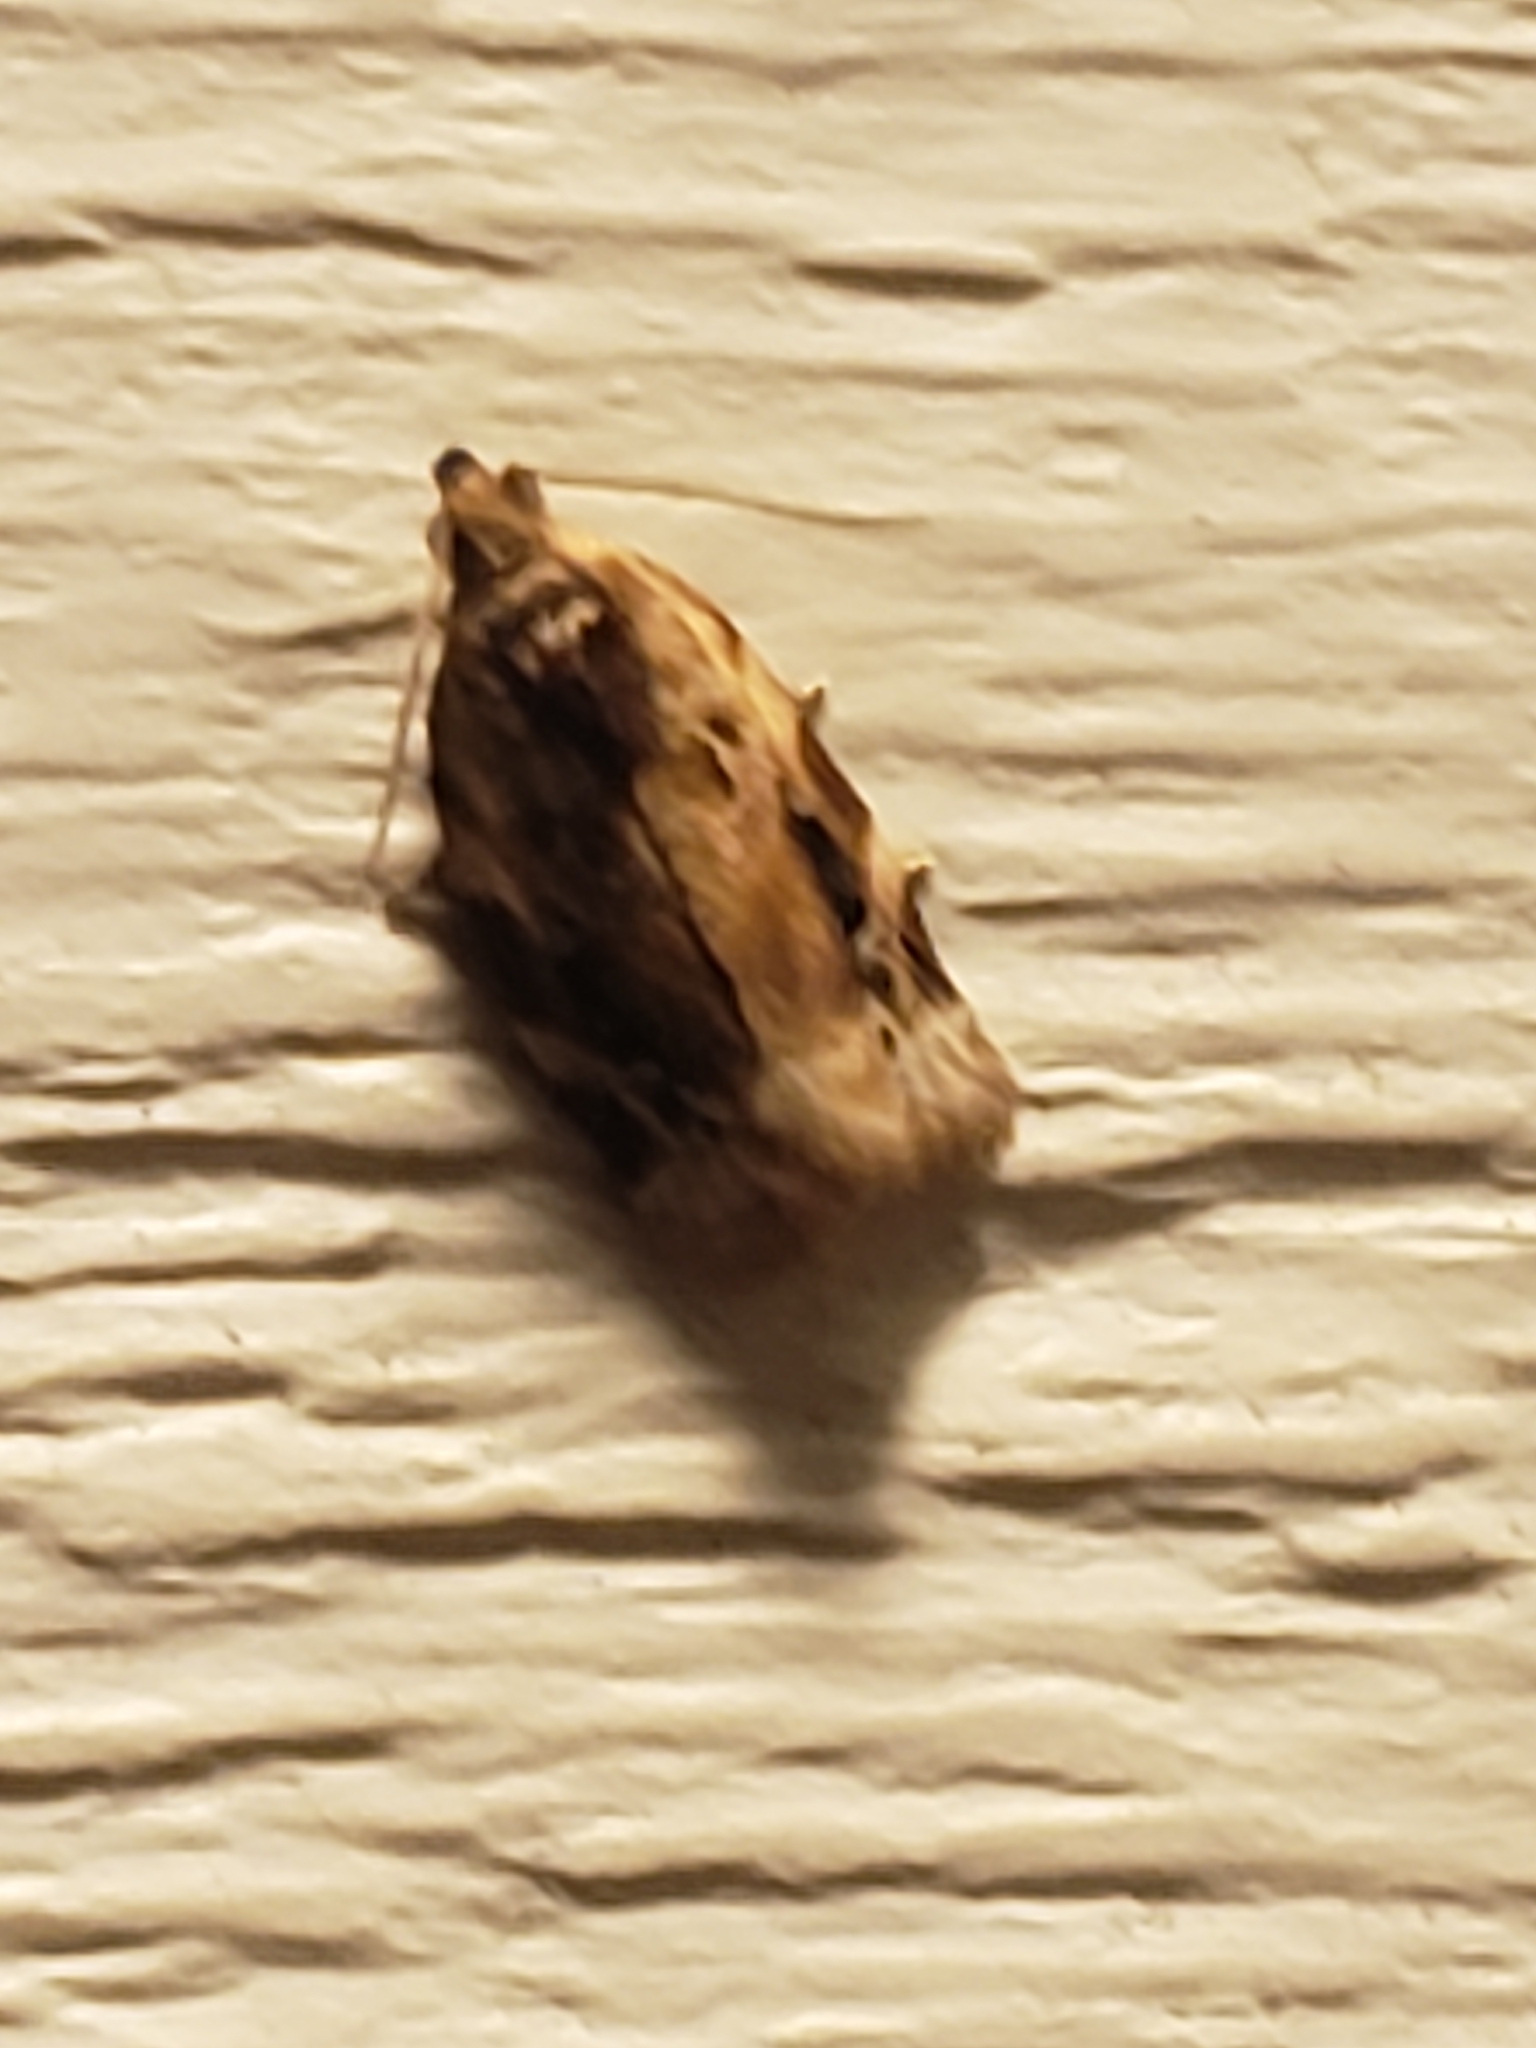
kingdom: Animalia
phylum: Arthropoda
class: Insecta
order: Lepidoptera
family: Tortricidae
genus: Argyrotaenia
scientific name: Argyrotaenia velutinana
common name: Red-banded leafroller moth
